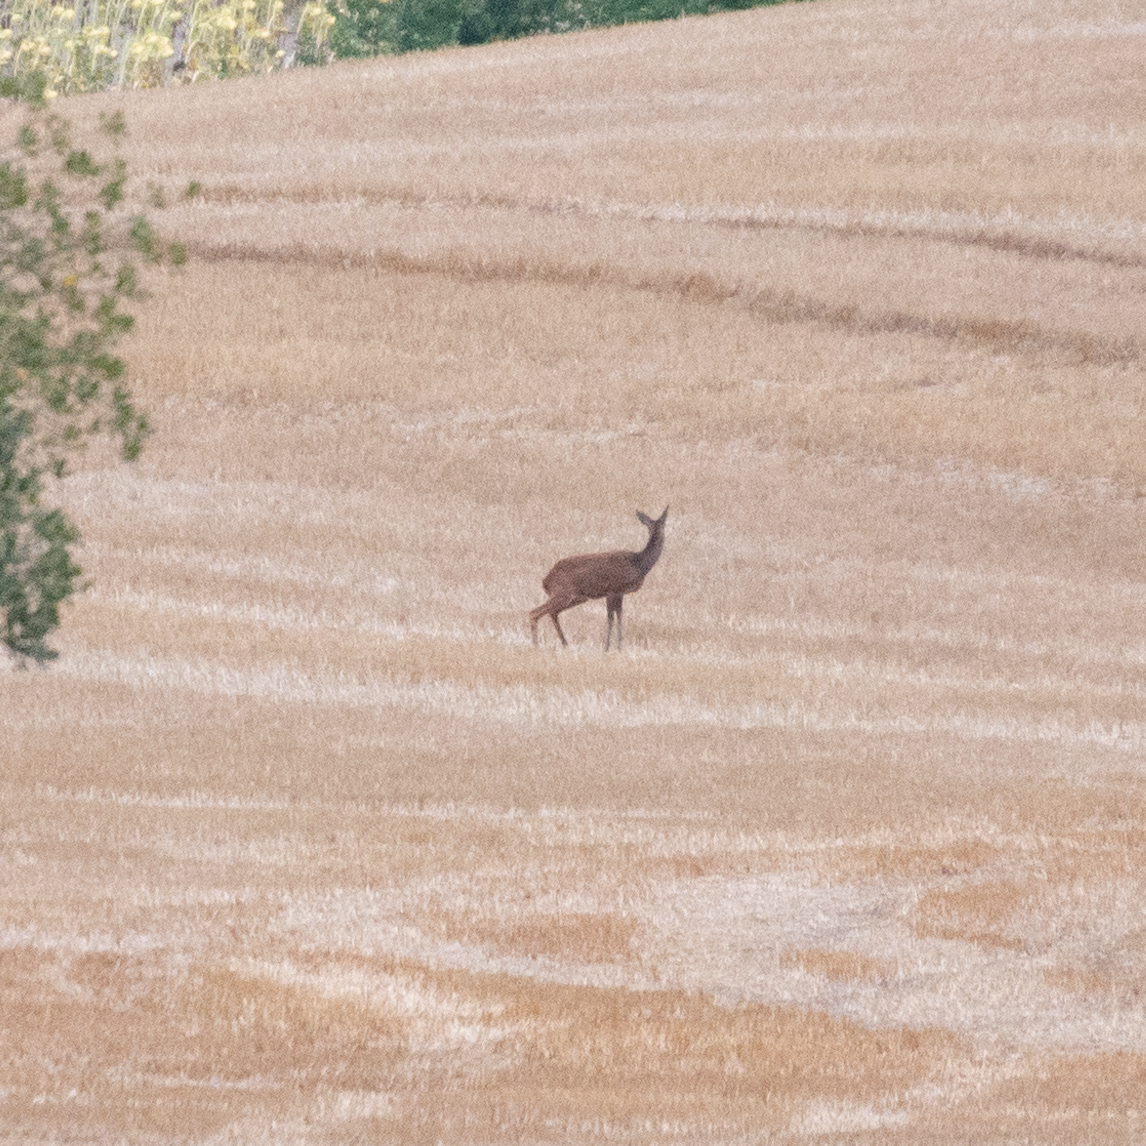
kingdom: Animalia
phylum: Chordata
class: Mammalia
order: Artiodactyla
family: Cervidae
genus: Capreolus
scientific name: Capreolus capreolus
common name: Western roe deer
